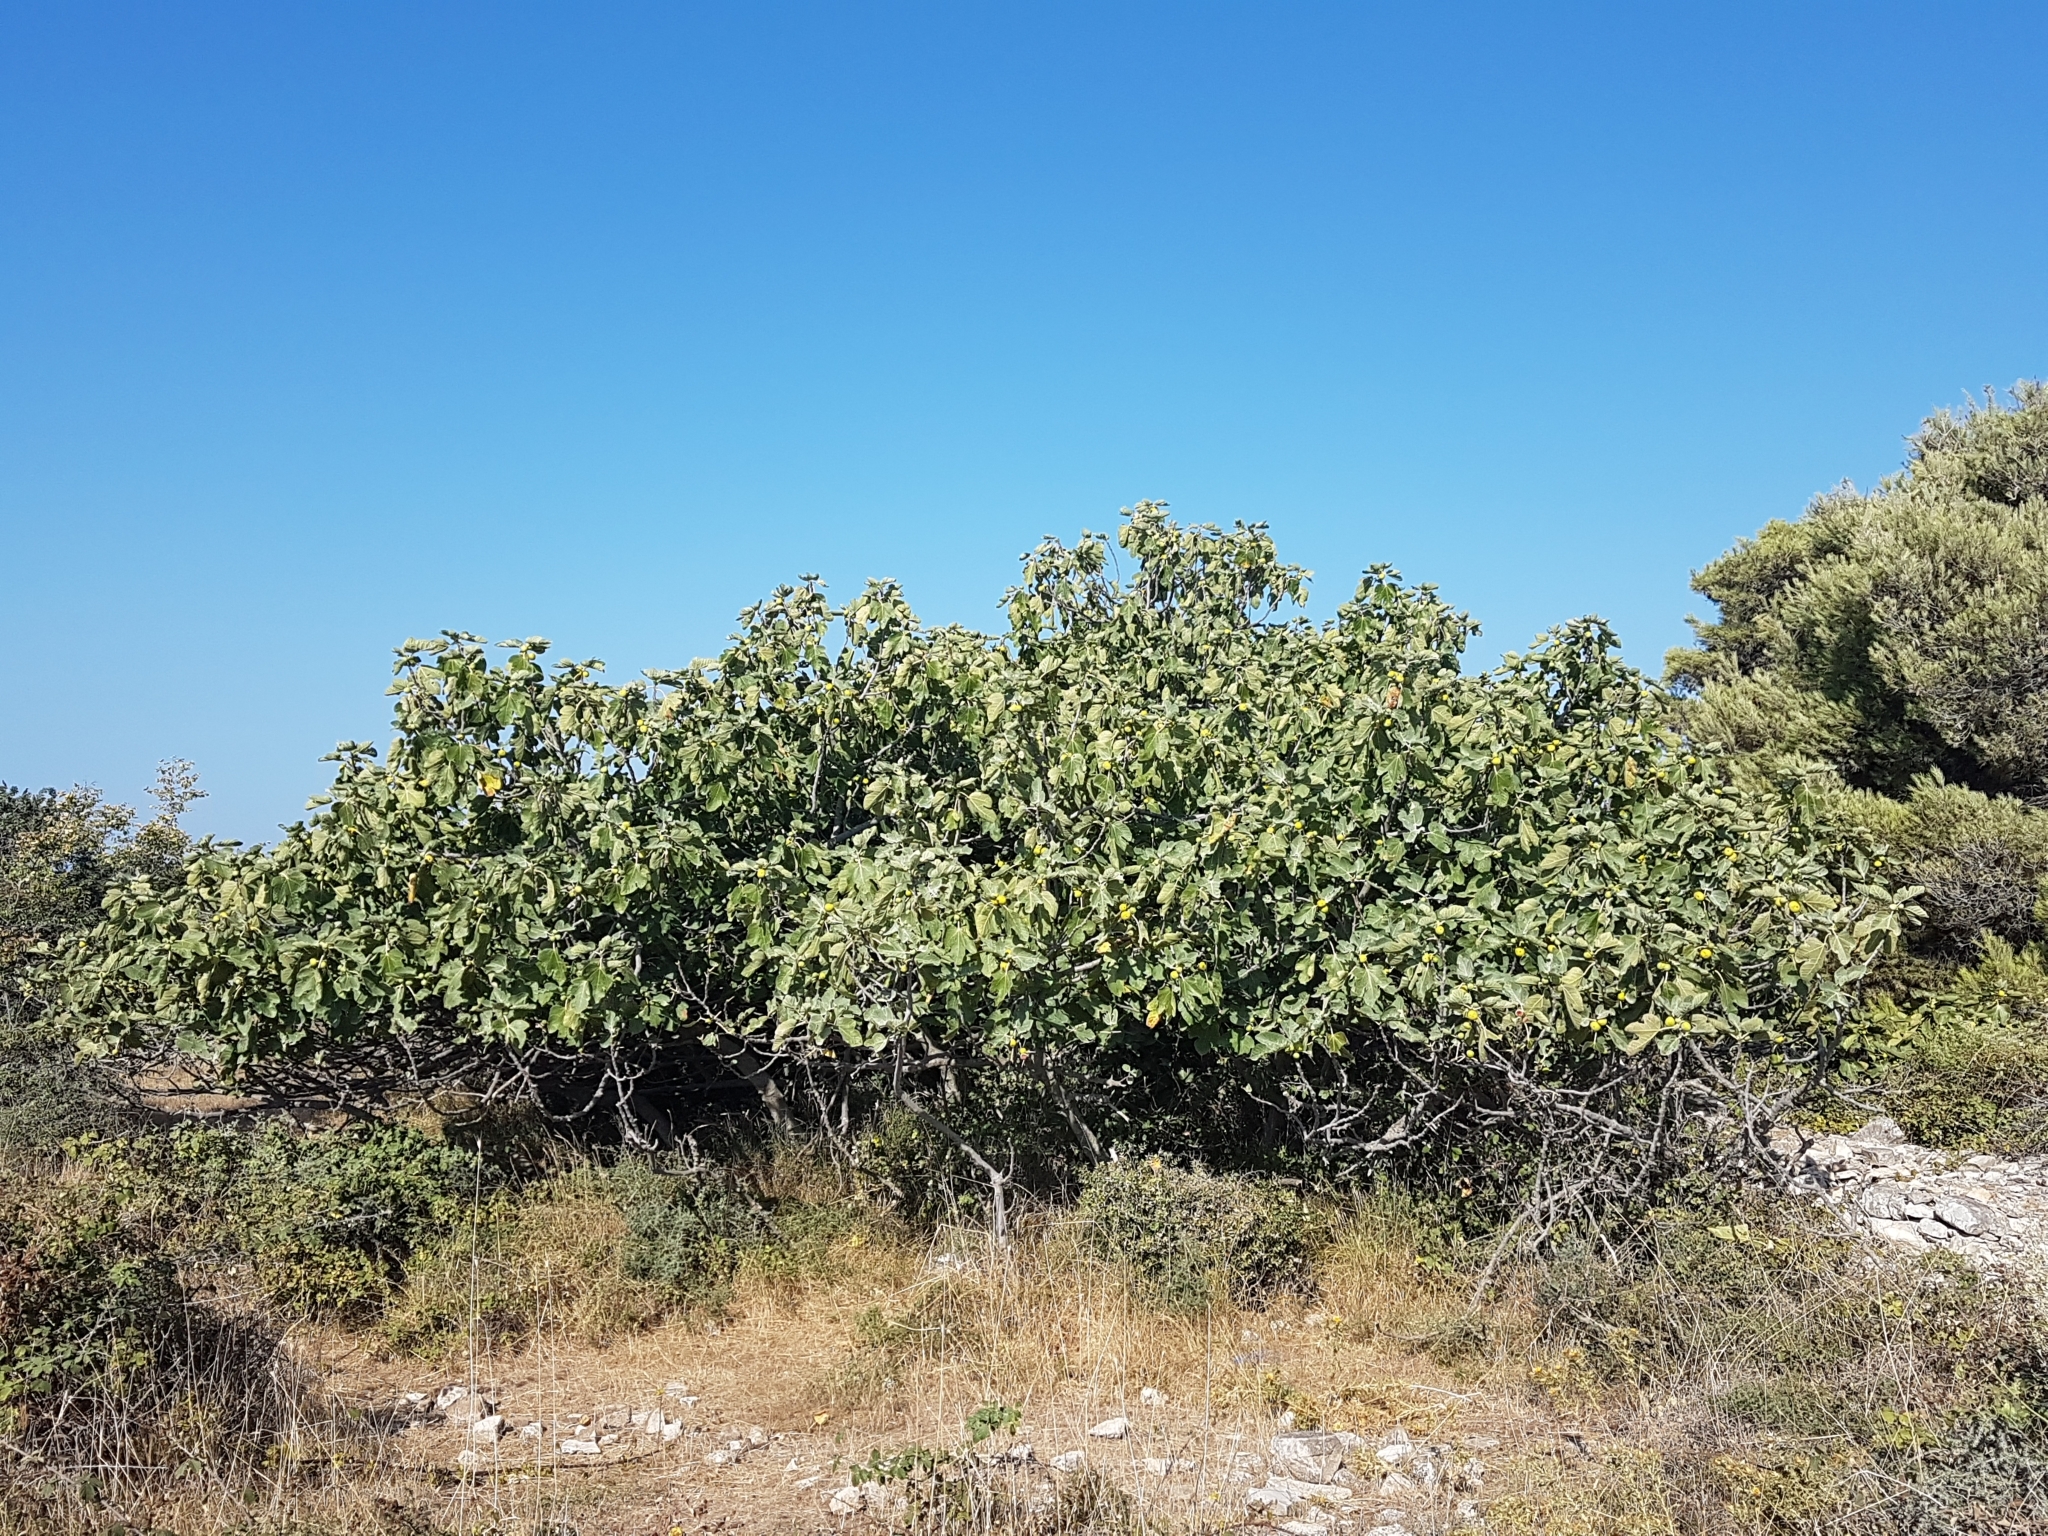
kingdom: Plantae
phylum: Tracheophyta
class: Magnoliopsida
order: Rosales
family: Moraceae
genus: Ficus
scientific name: Ficus carica
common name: Fig
